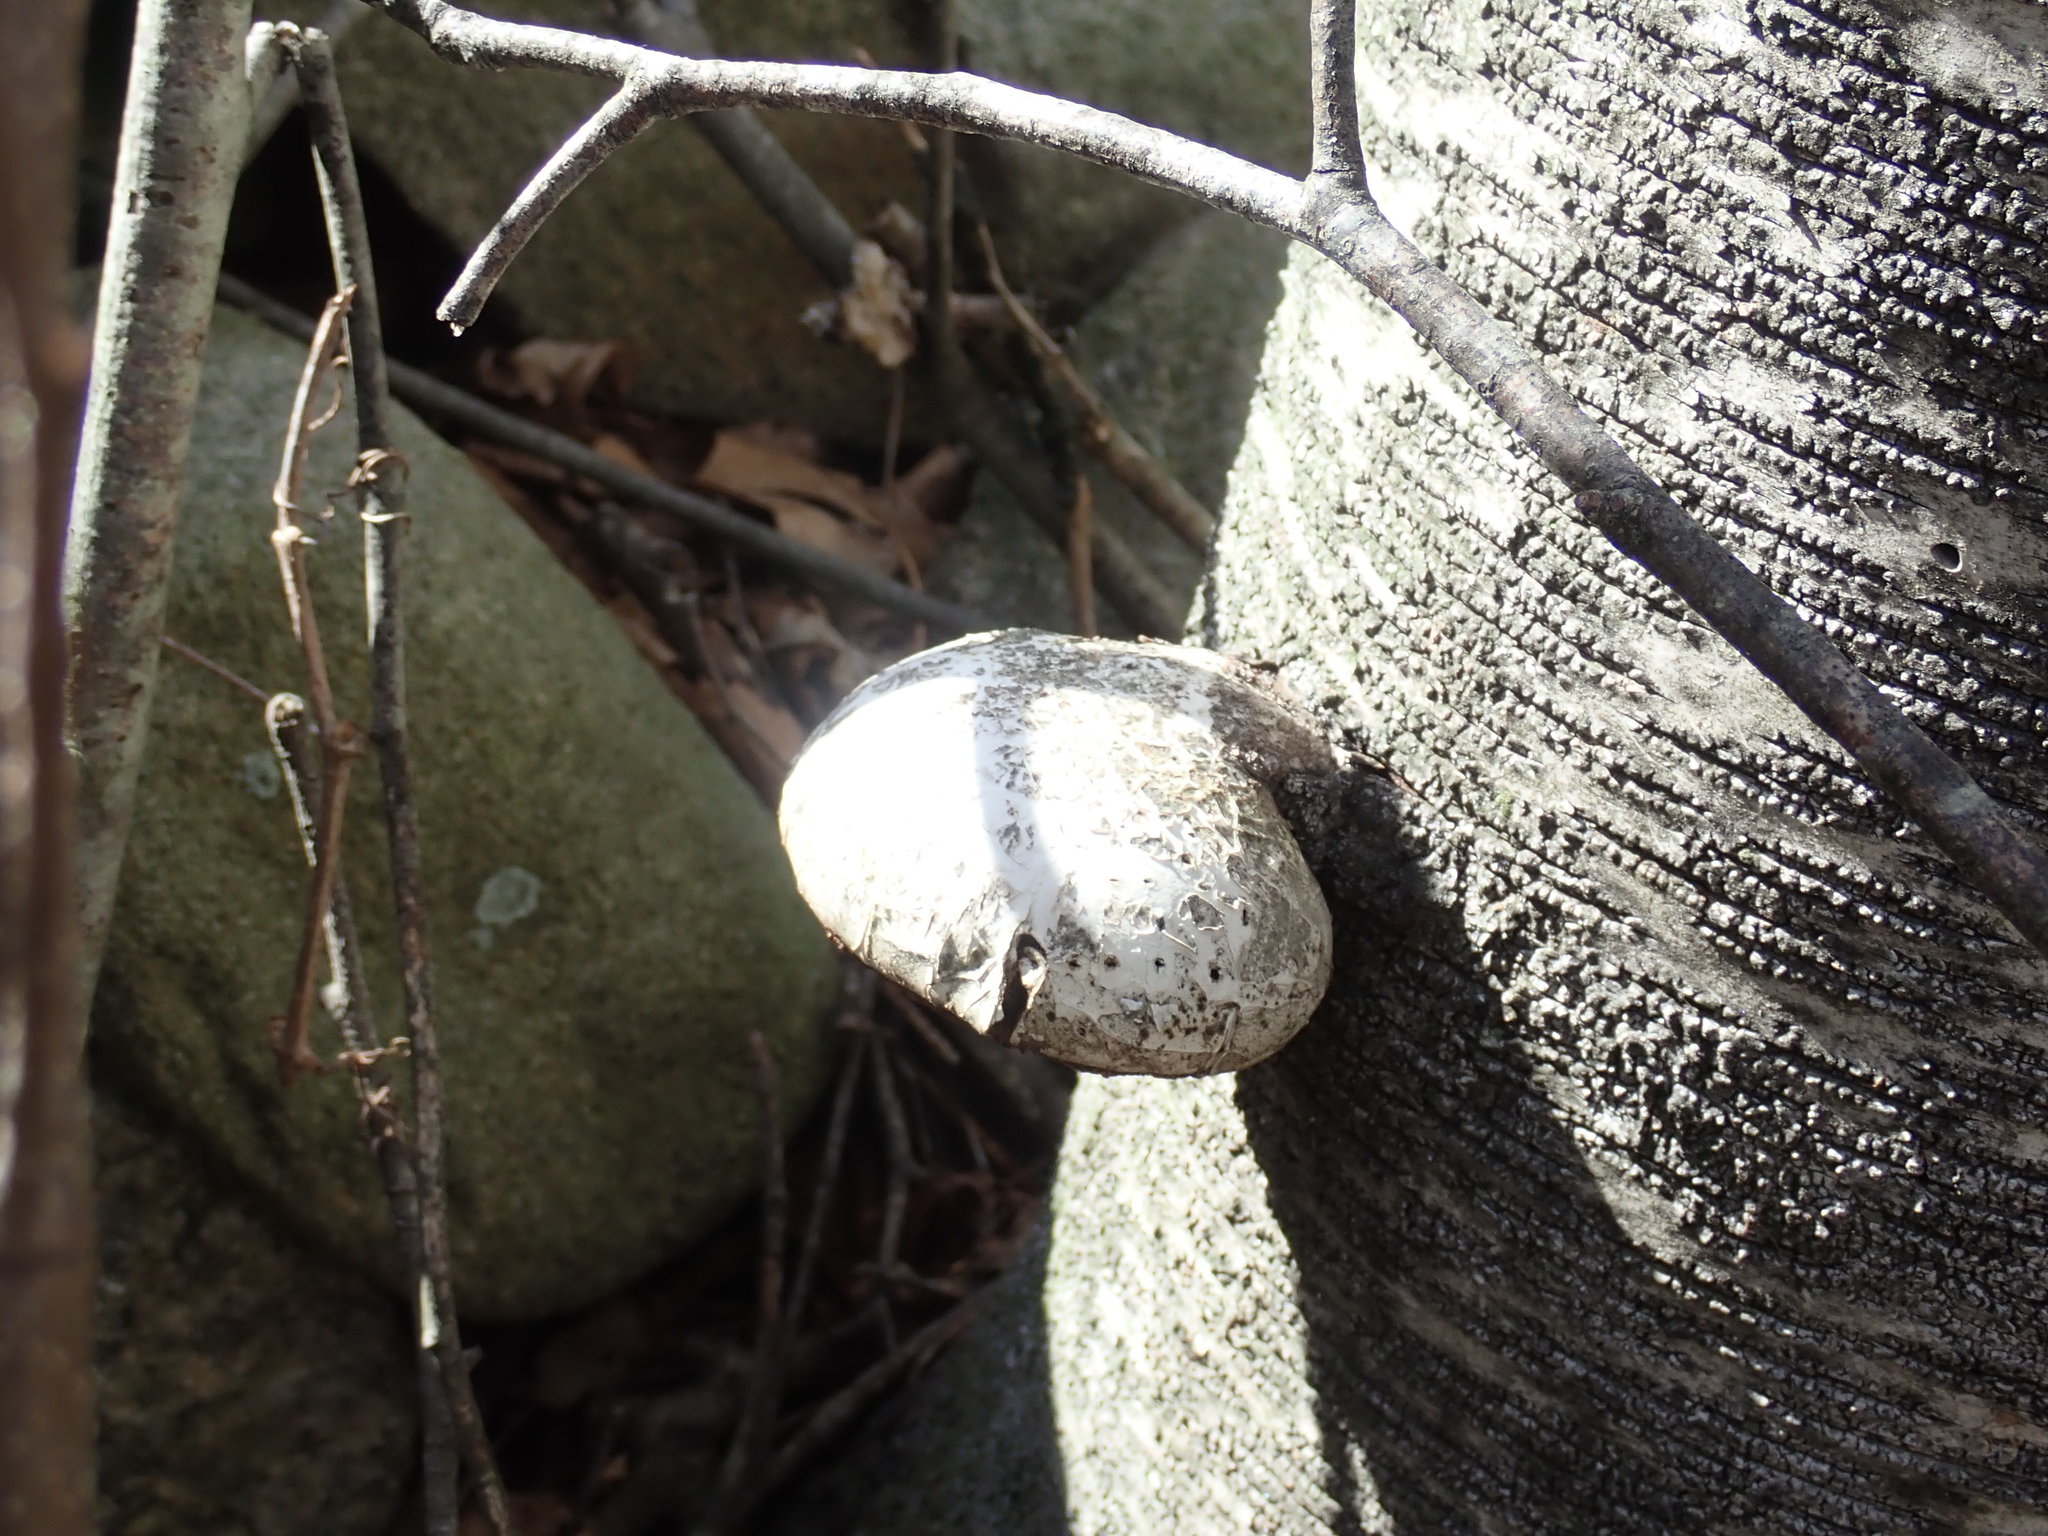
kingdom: Fungi
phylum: Basidiomycota
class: Agaricomycetes
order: Polyporales
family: Fomitopsidaceae
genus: Fomitopsis
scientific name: Fomitopsis betulina
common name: Birch polypore
